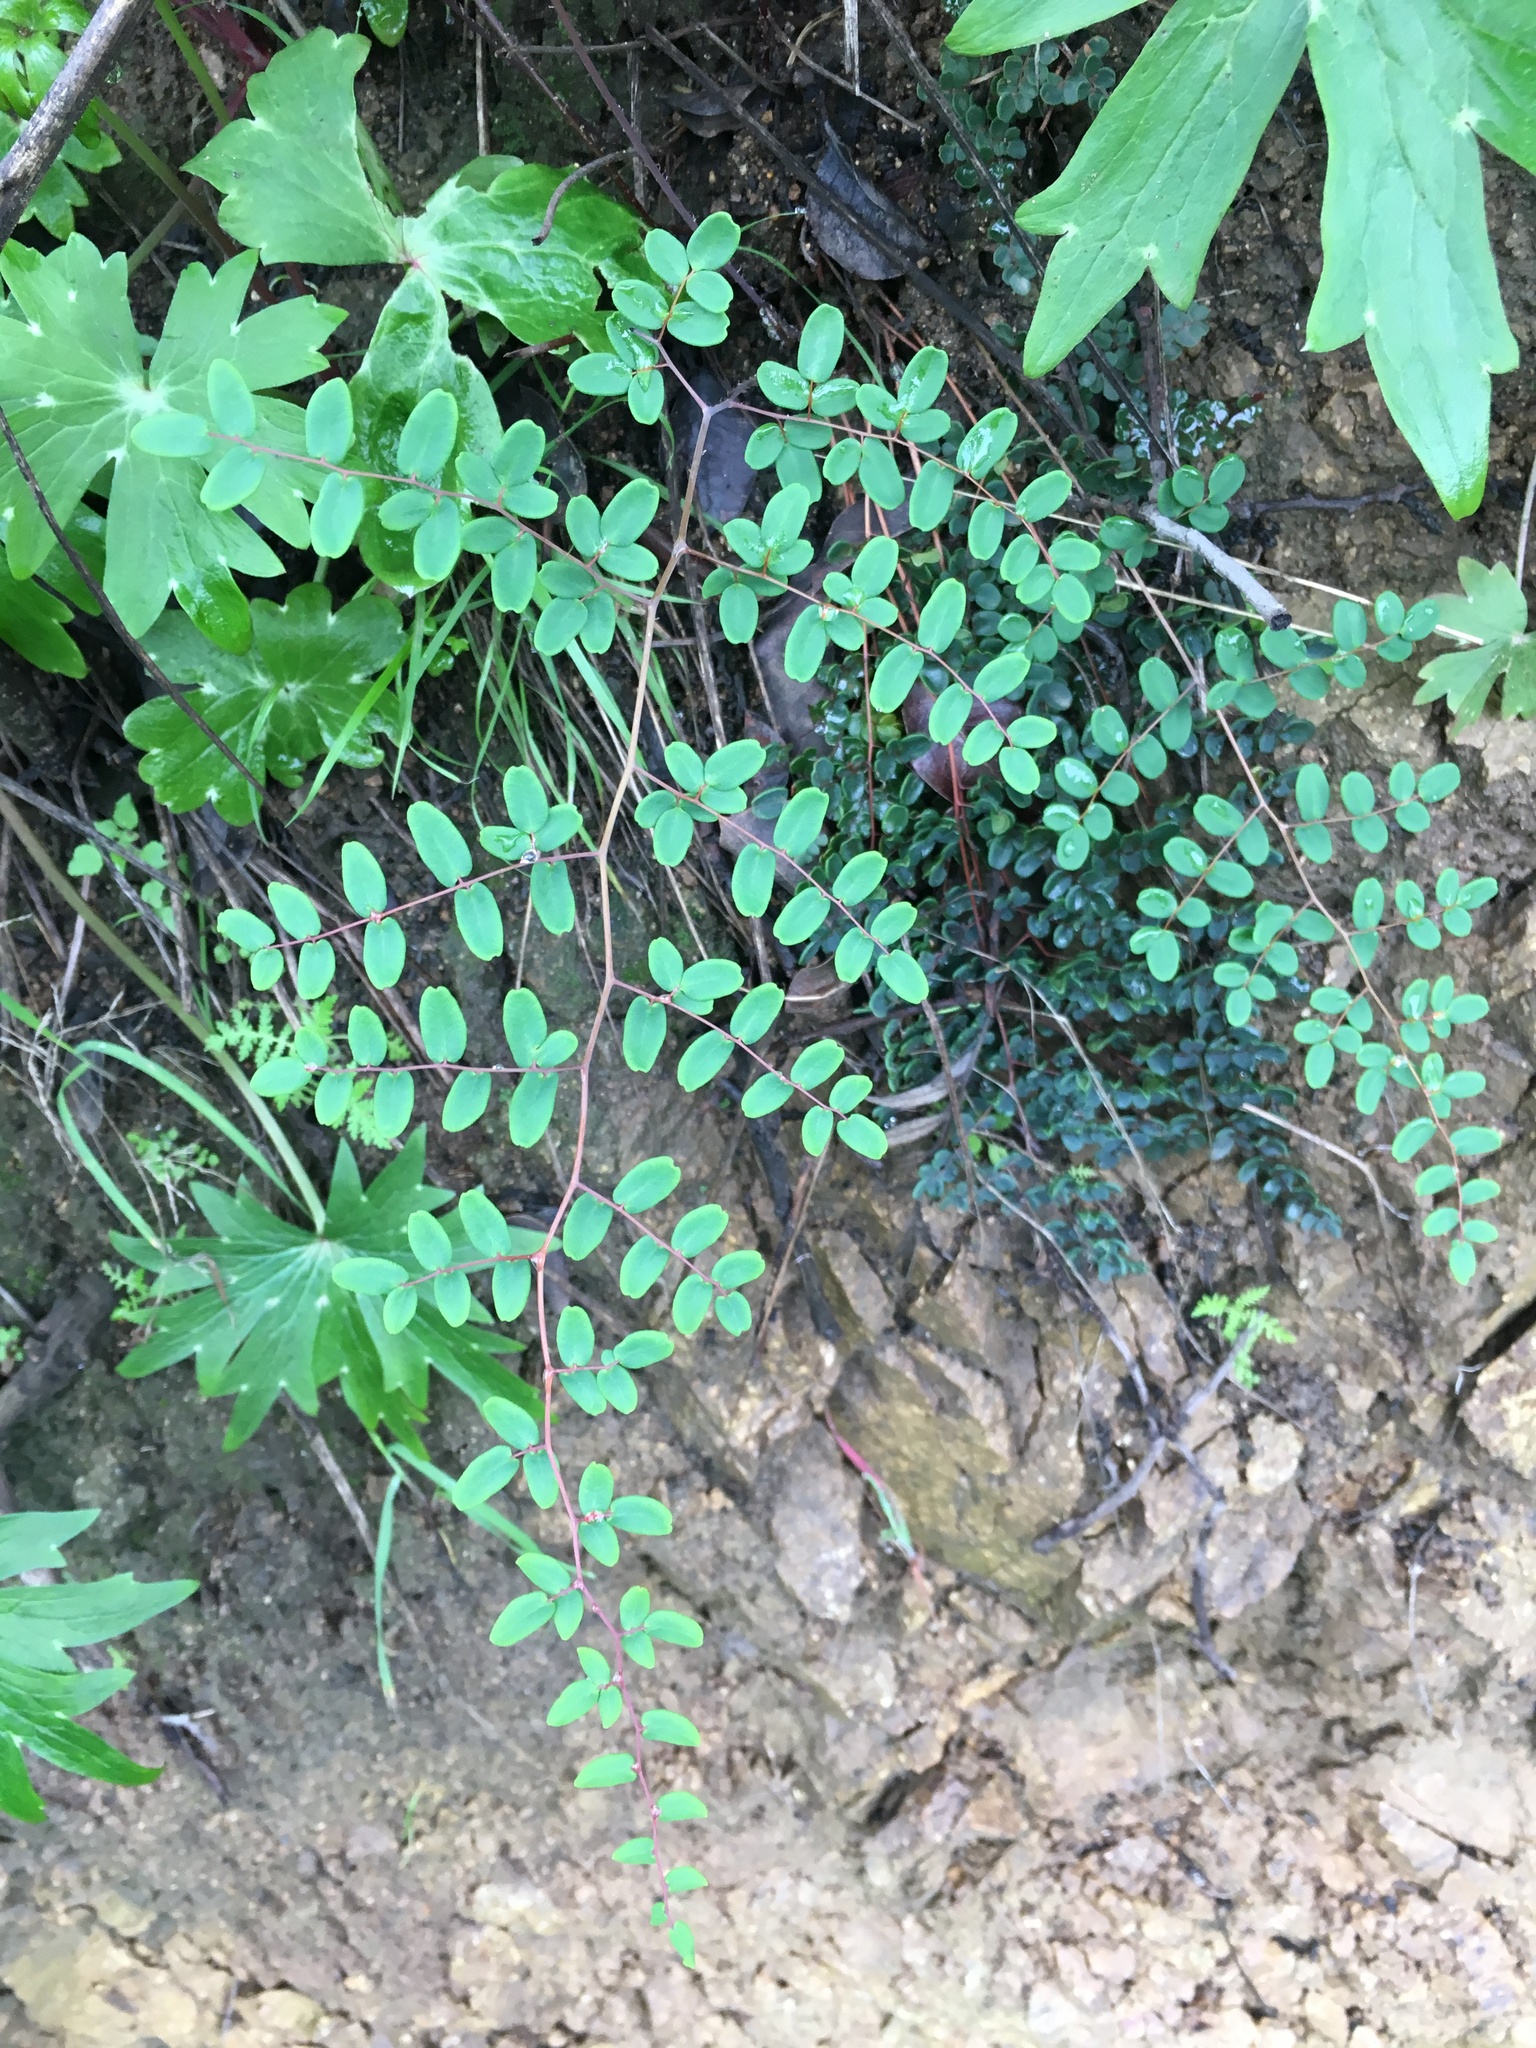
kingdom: Plantae
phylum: Tracheophyta
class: Polypodiopsida
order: Polypodiales
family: Pteridaceae
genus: Pellaea
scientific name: Pellaea andromedifolia
